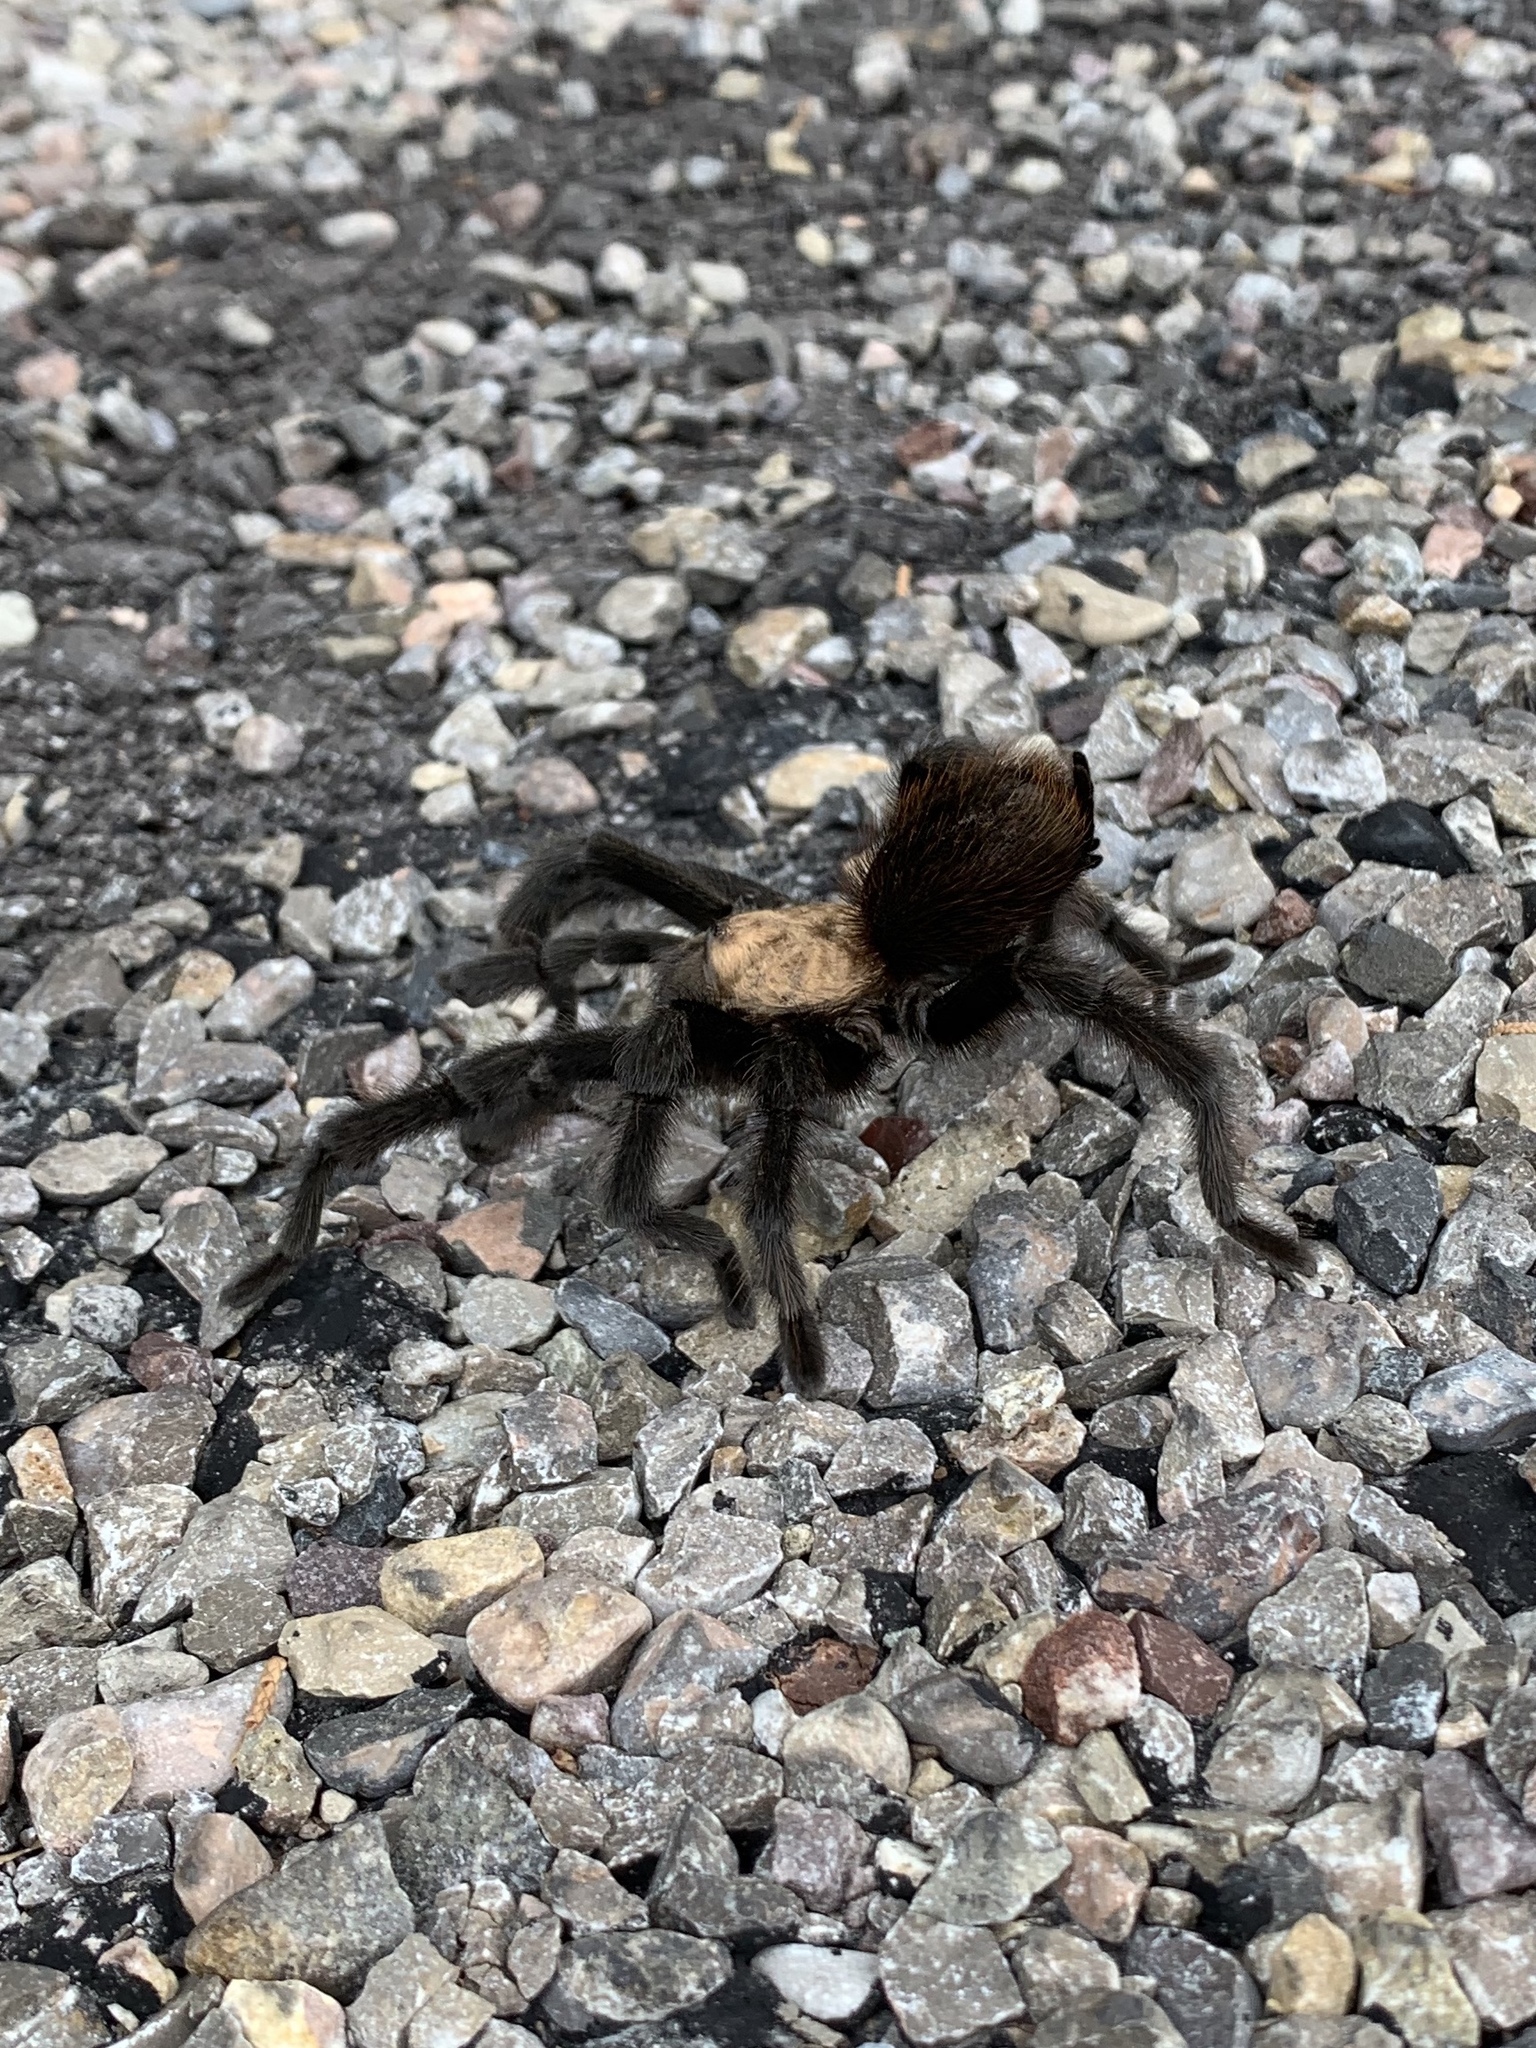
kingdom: Animalia
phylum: Arthropoda
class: Arachnida
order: Araneae
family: Theraphosidae
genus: Aphonopelma
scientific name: Aphonopelma hentzi
